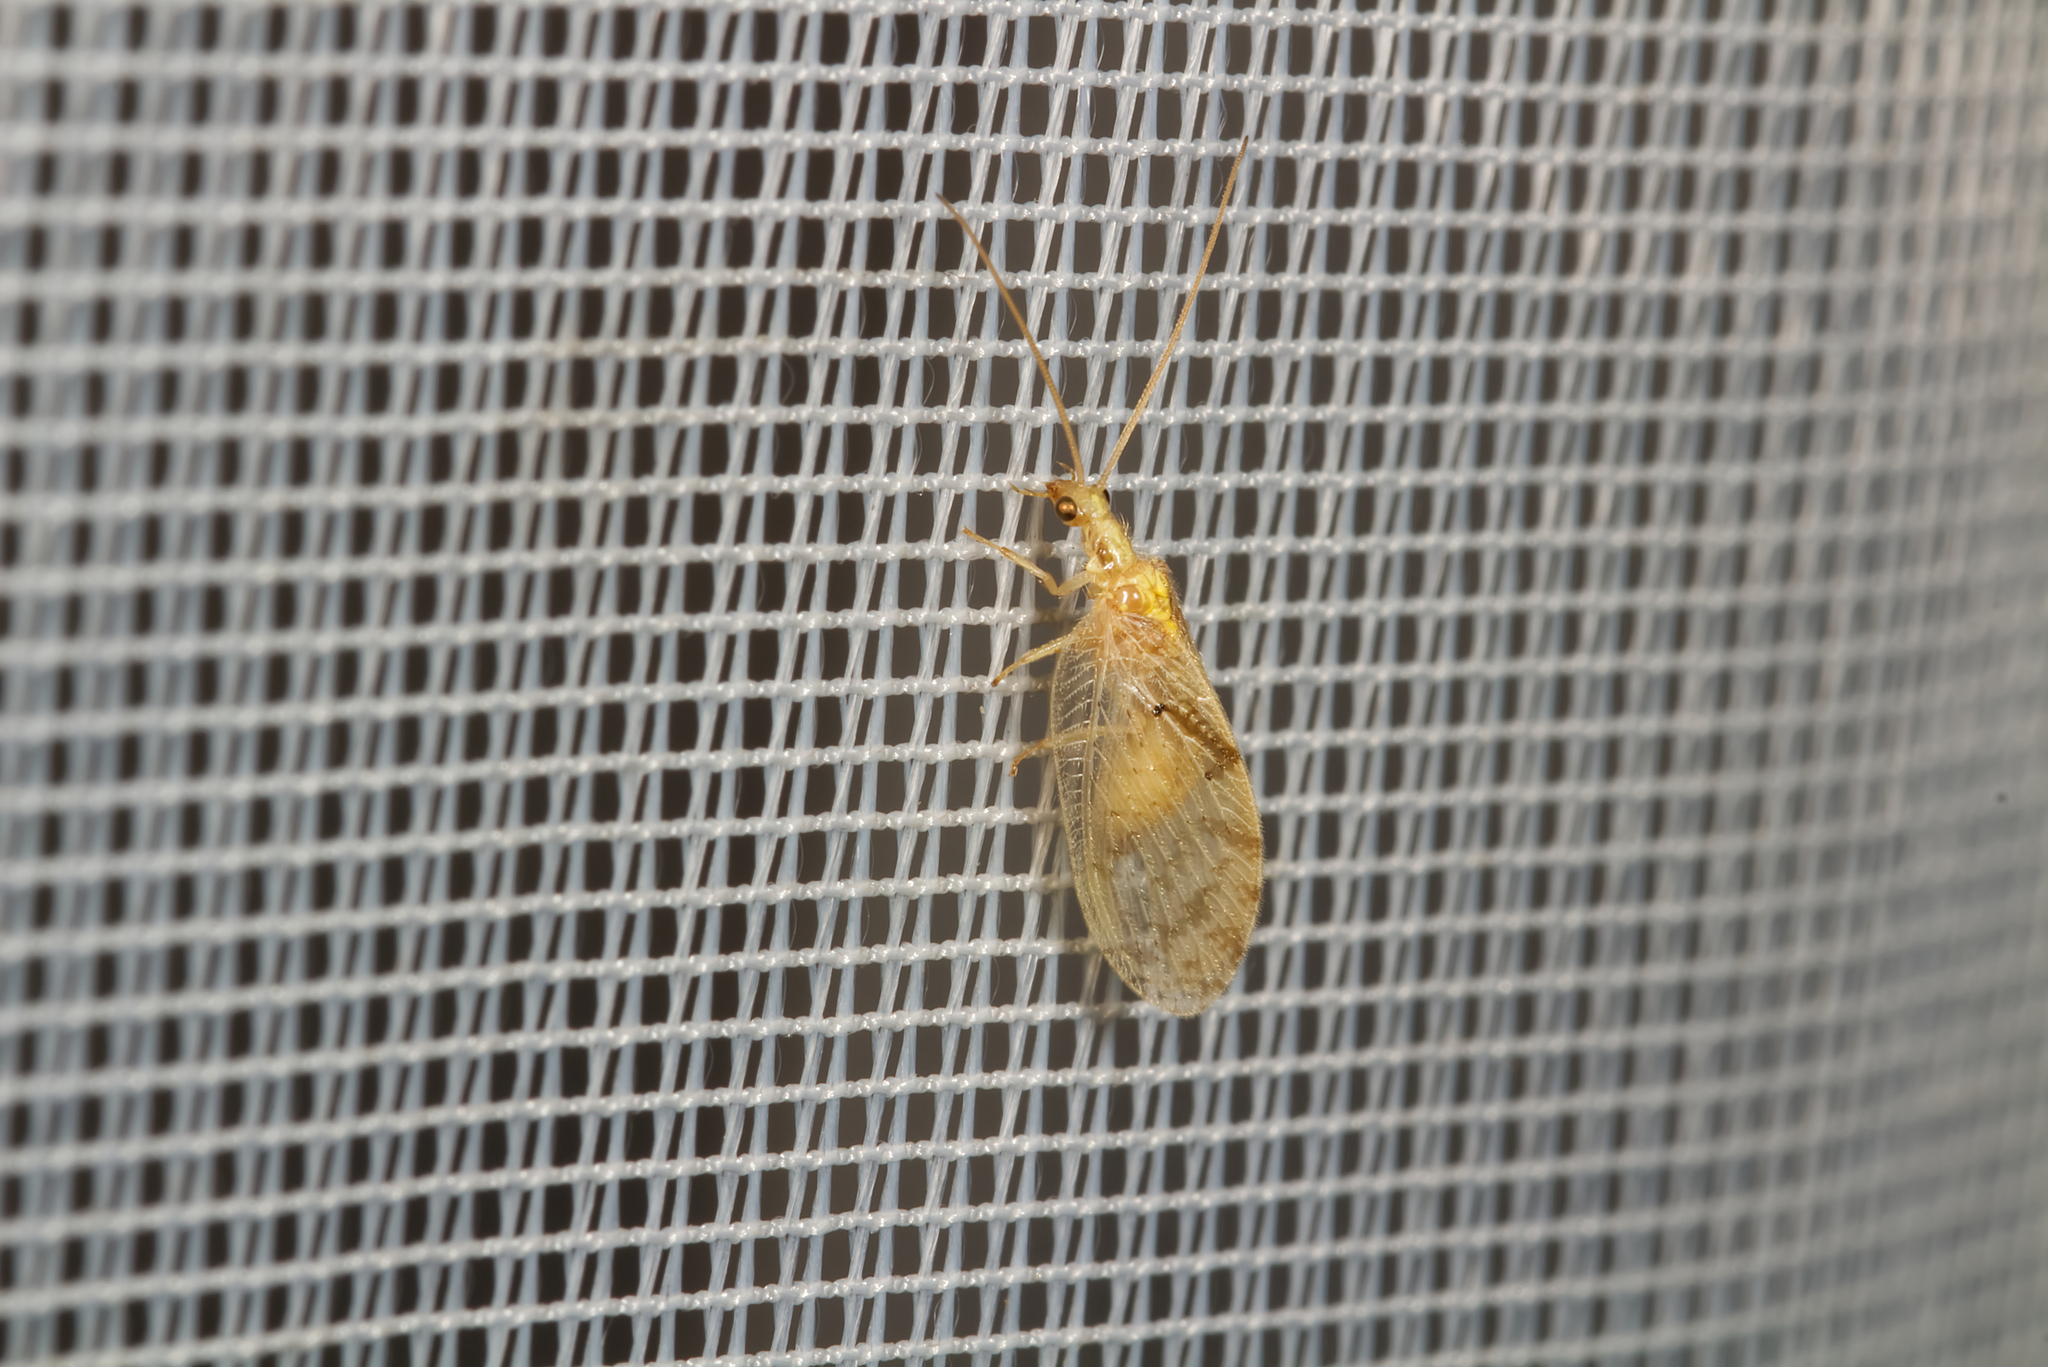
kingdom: Animalia
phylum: Arthropoda
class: Insecta
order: Neuroptera
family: Hemerobiidae
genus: Hemerobius
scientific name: Hemerobius lutescens
